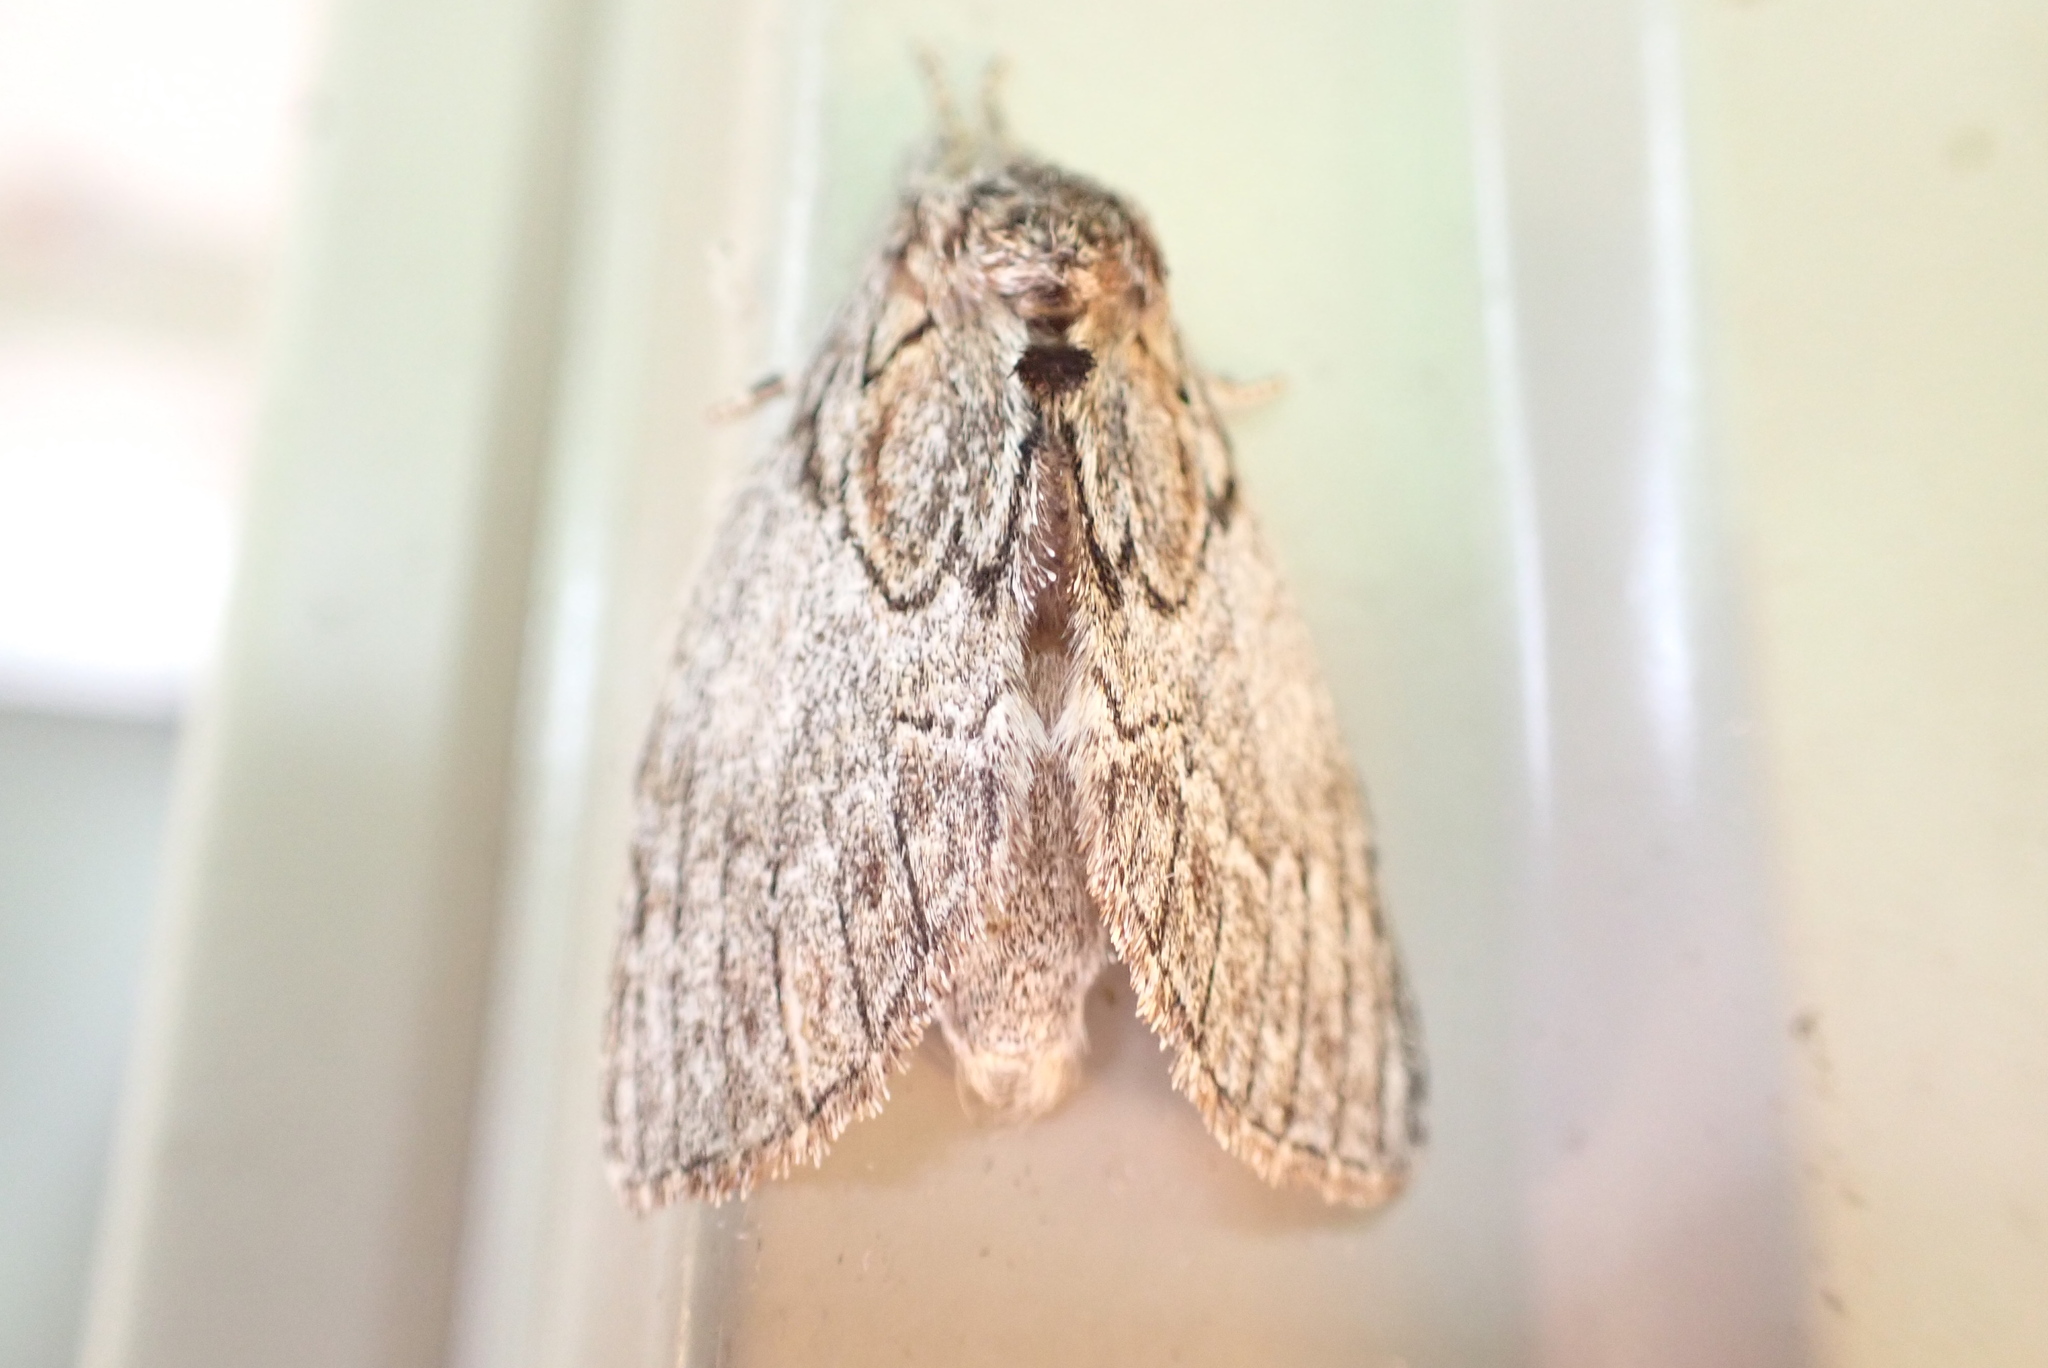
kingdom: Animalia
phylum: Arthropoda
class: Insecta
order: Lepidoptera
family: Notodontidae
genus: Peridea
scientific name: Peridea basitriens
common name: Oval-based prominent
